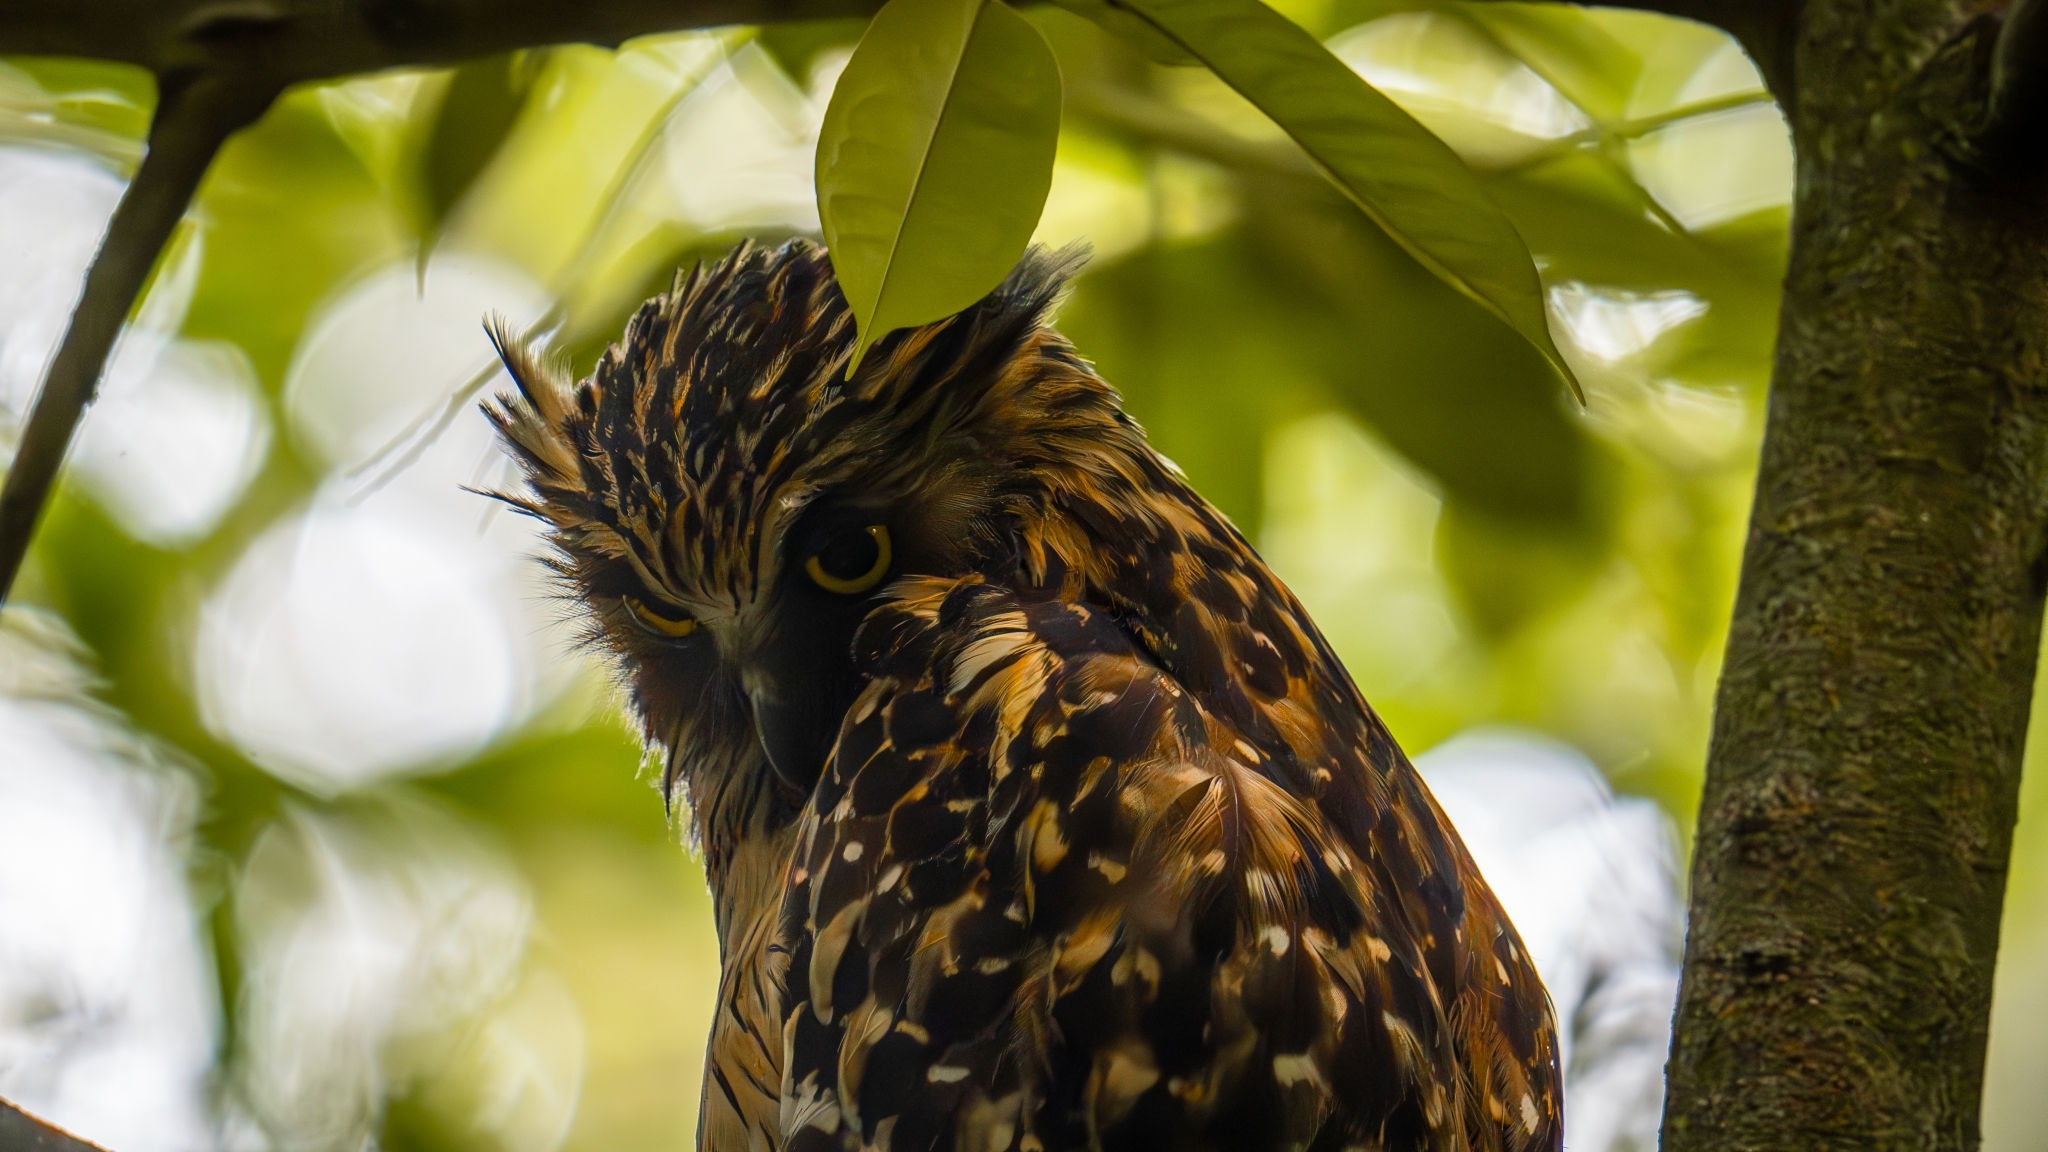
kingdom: Animalia
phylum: Chordata
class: Aves
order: Strigiformes
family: Strigidae
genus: Ketupa
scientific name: Ketupa ketupu
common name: Buffy fish-owl
